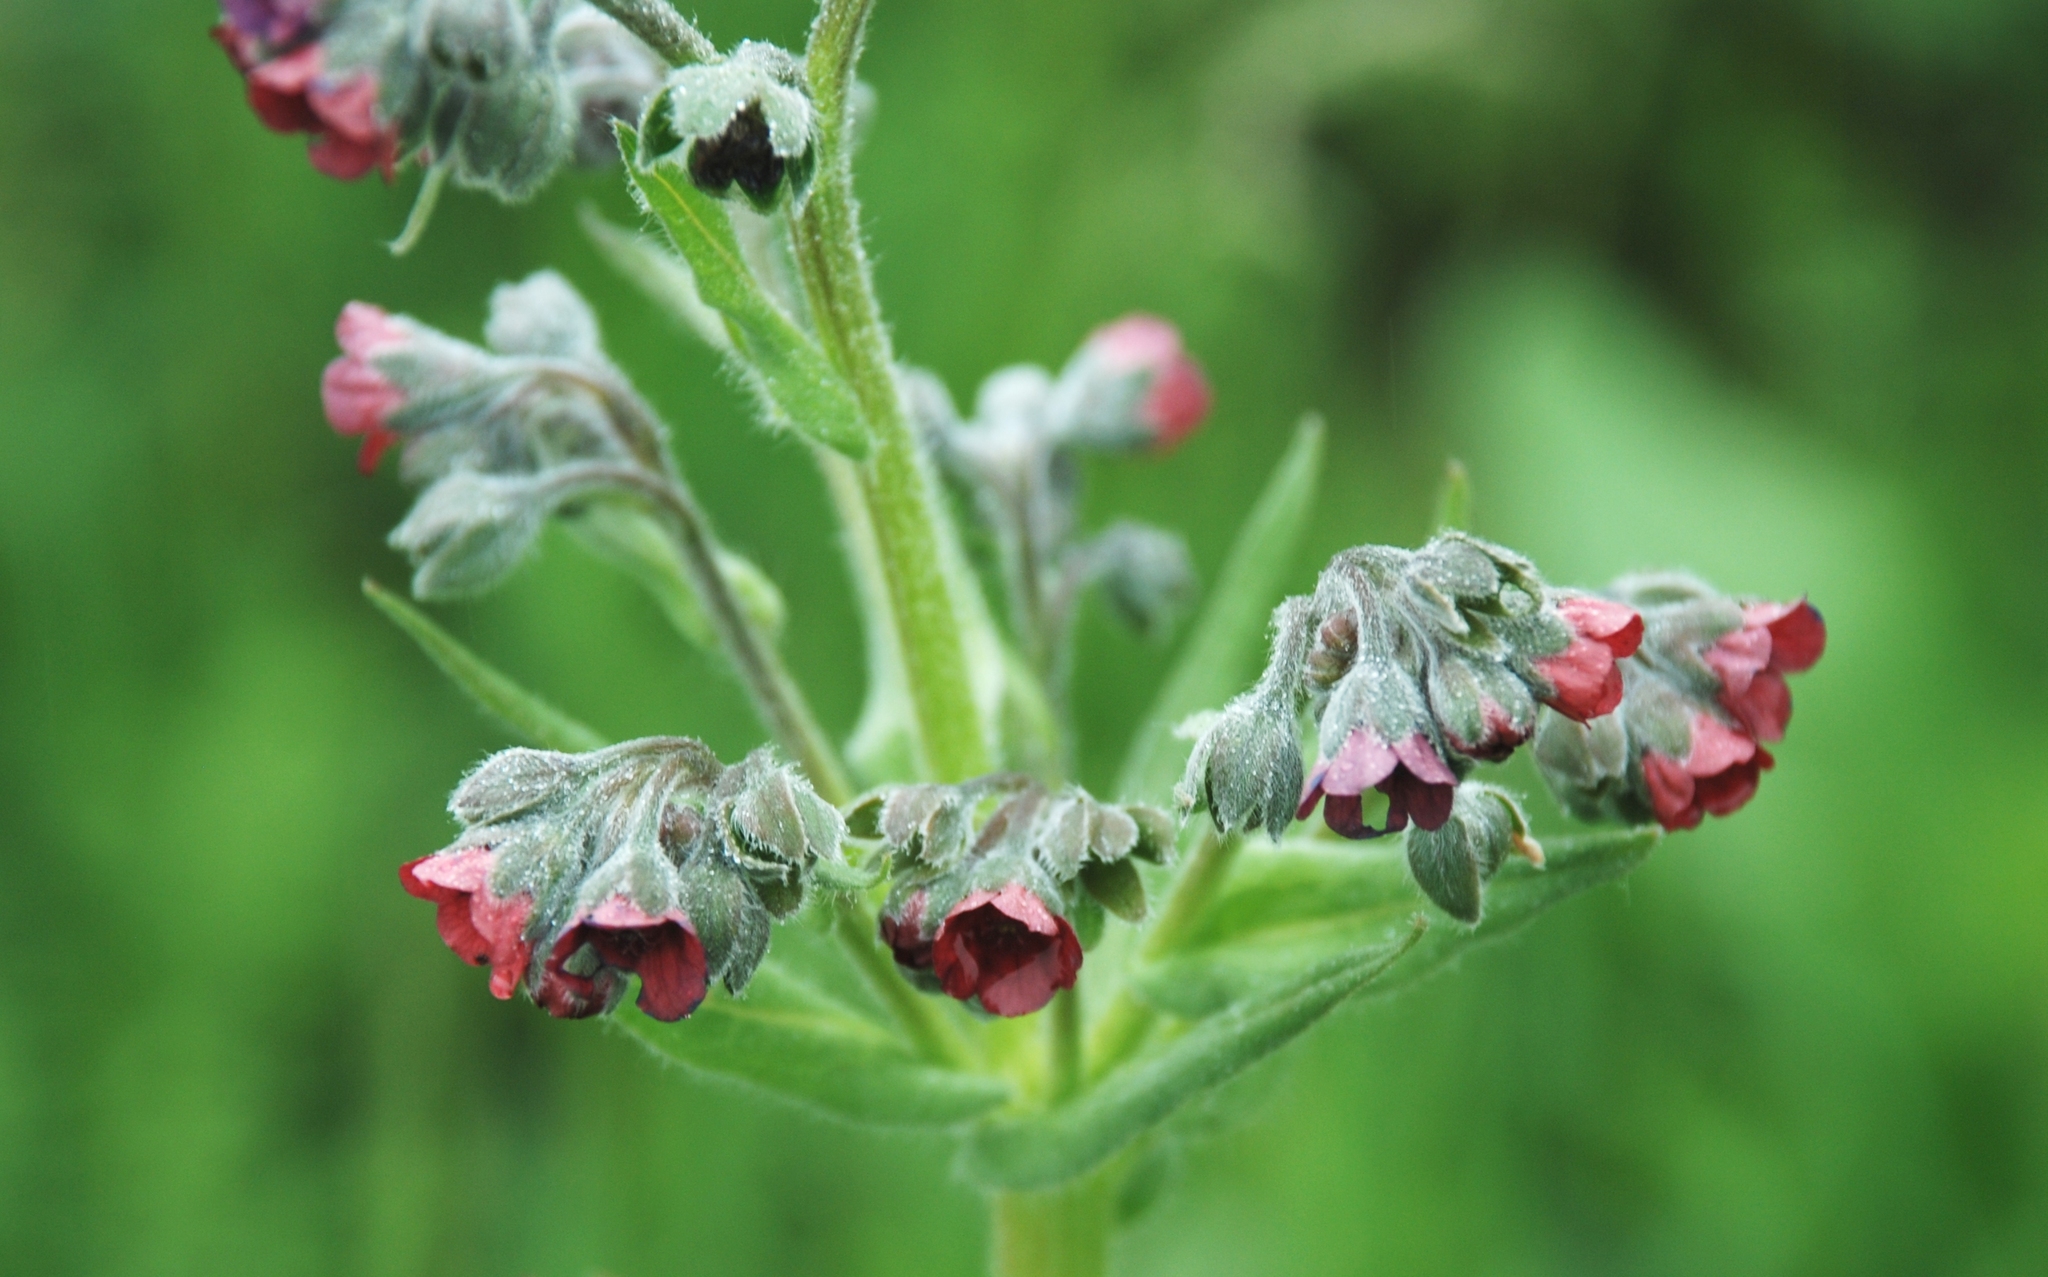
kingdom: Plantae
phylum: Tracheophyta
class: Magnoliopsida
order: Boraginales
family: Boraginaceae
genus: Cynoglossum
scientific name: Cynoglossum officinale
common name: Hound's-tongue
